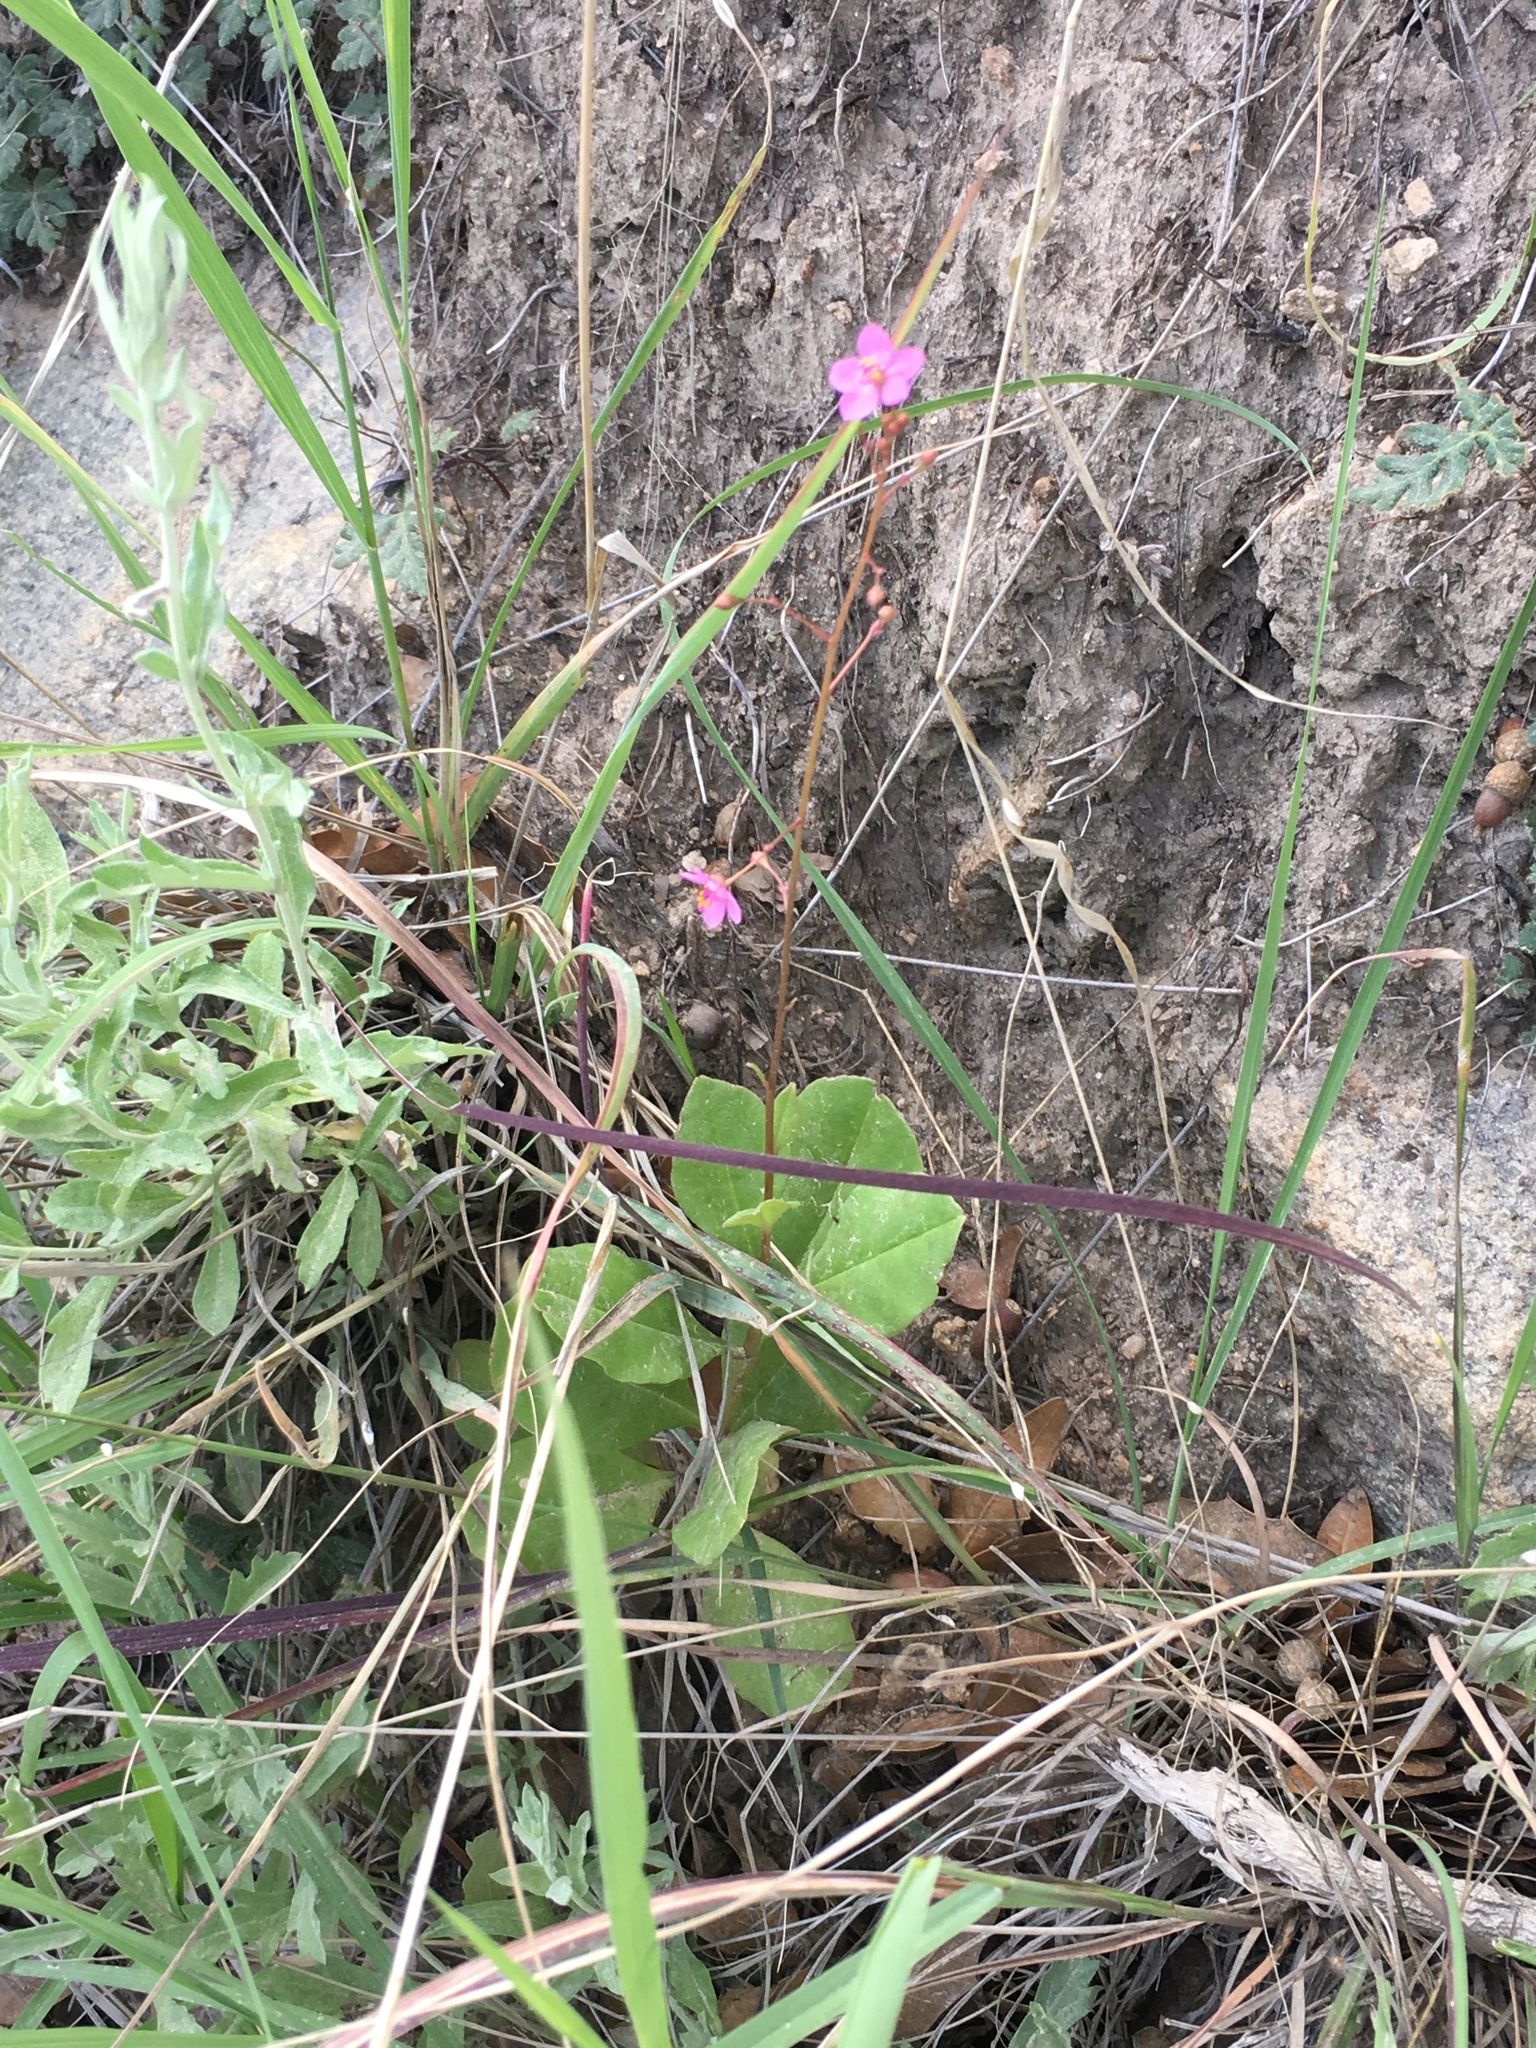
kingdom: Plantae
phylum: Tracheophyta
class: Magnoliopsida
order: Caryophyllales
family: Talinaceae
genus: Talinum
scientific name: Talinum paniculatum
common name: Jewels of opar
